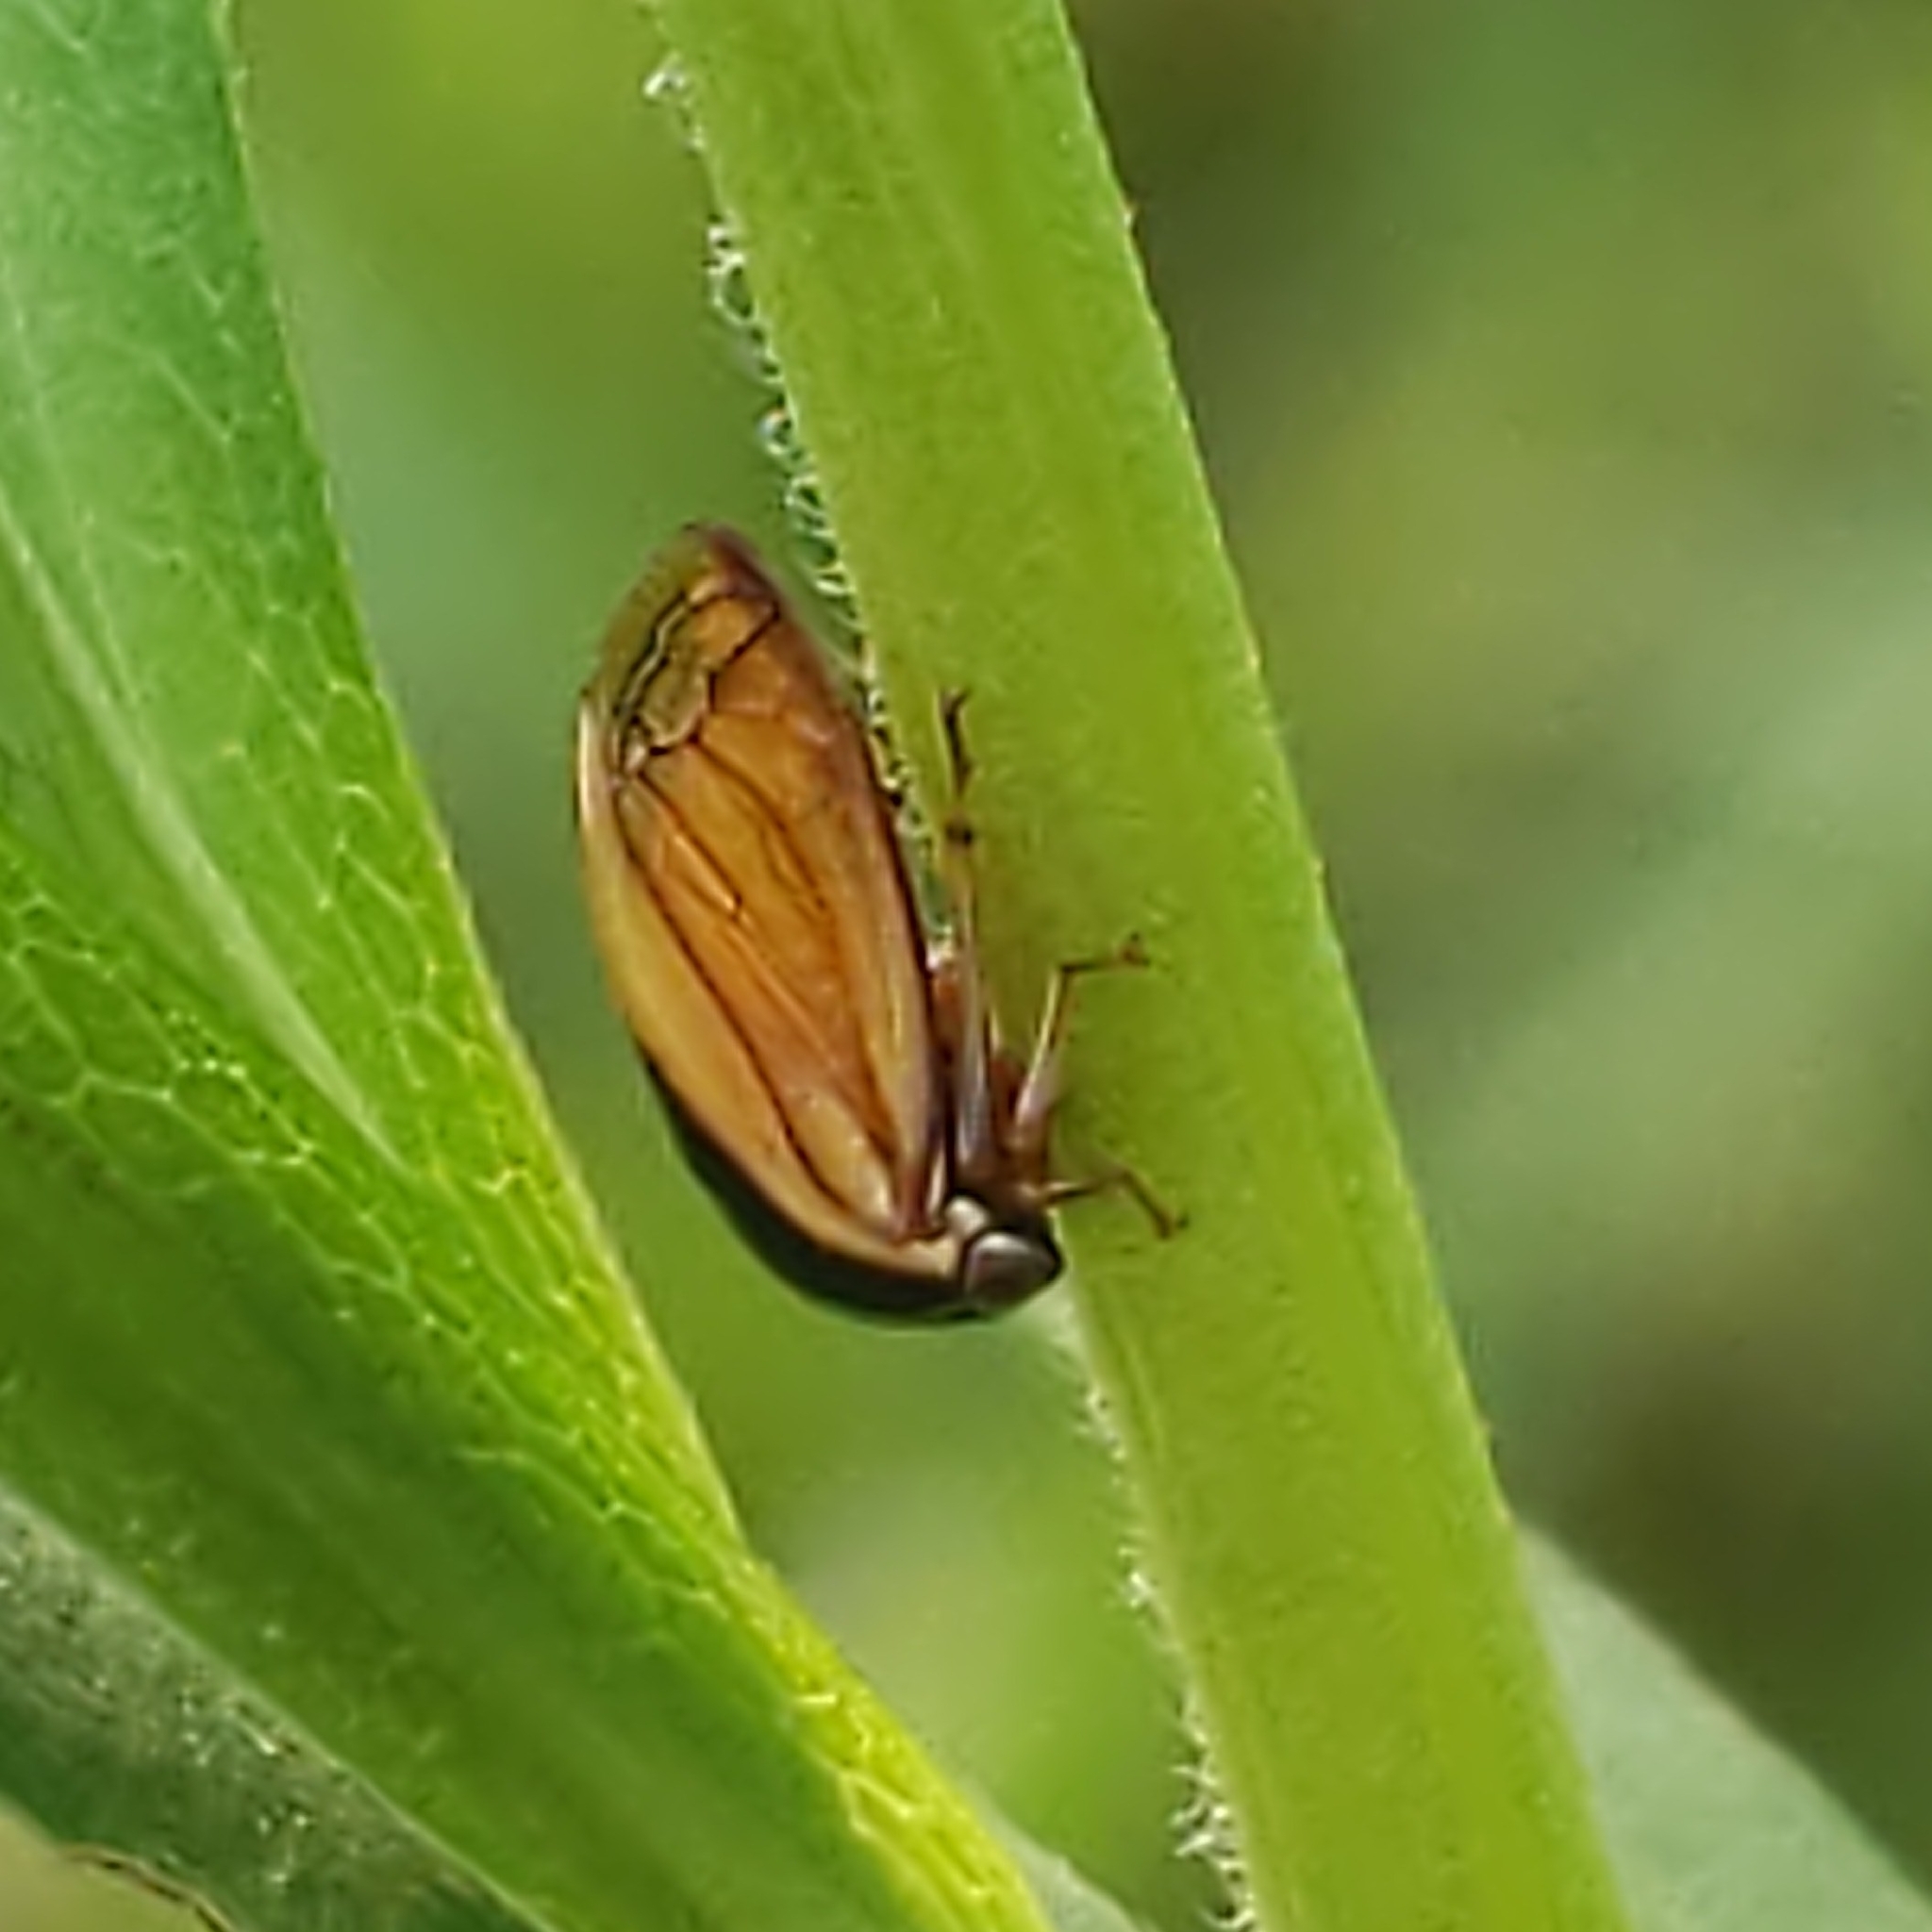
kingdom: Animalia
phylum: Arthropoda
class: Insecta
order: Hemiptera
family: Membracidae
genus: Acutalis
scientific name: Acutalis tartarea
